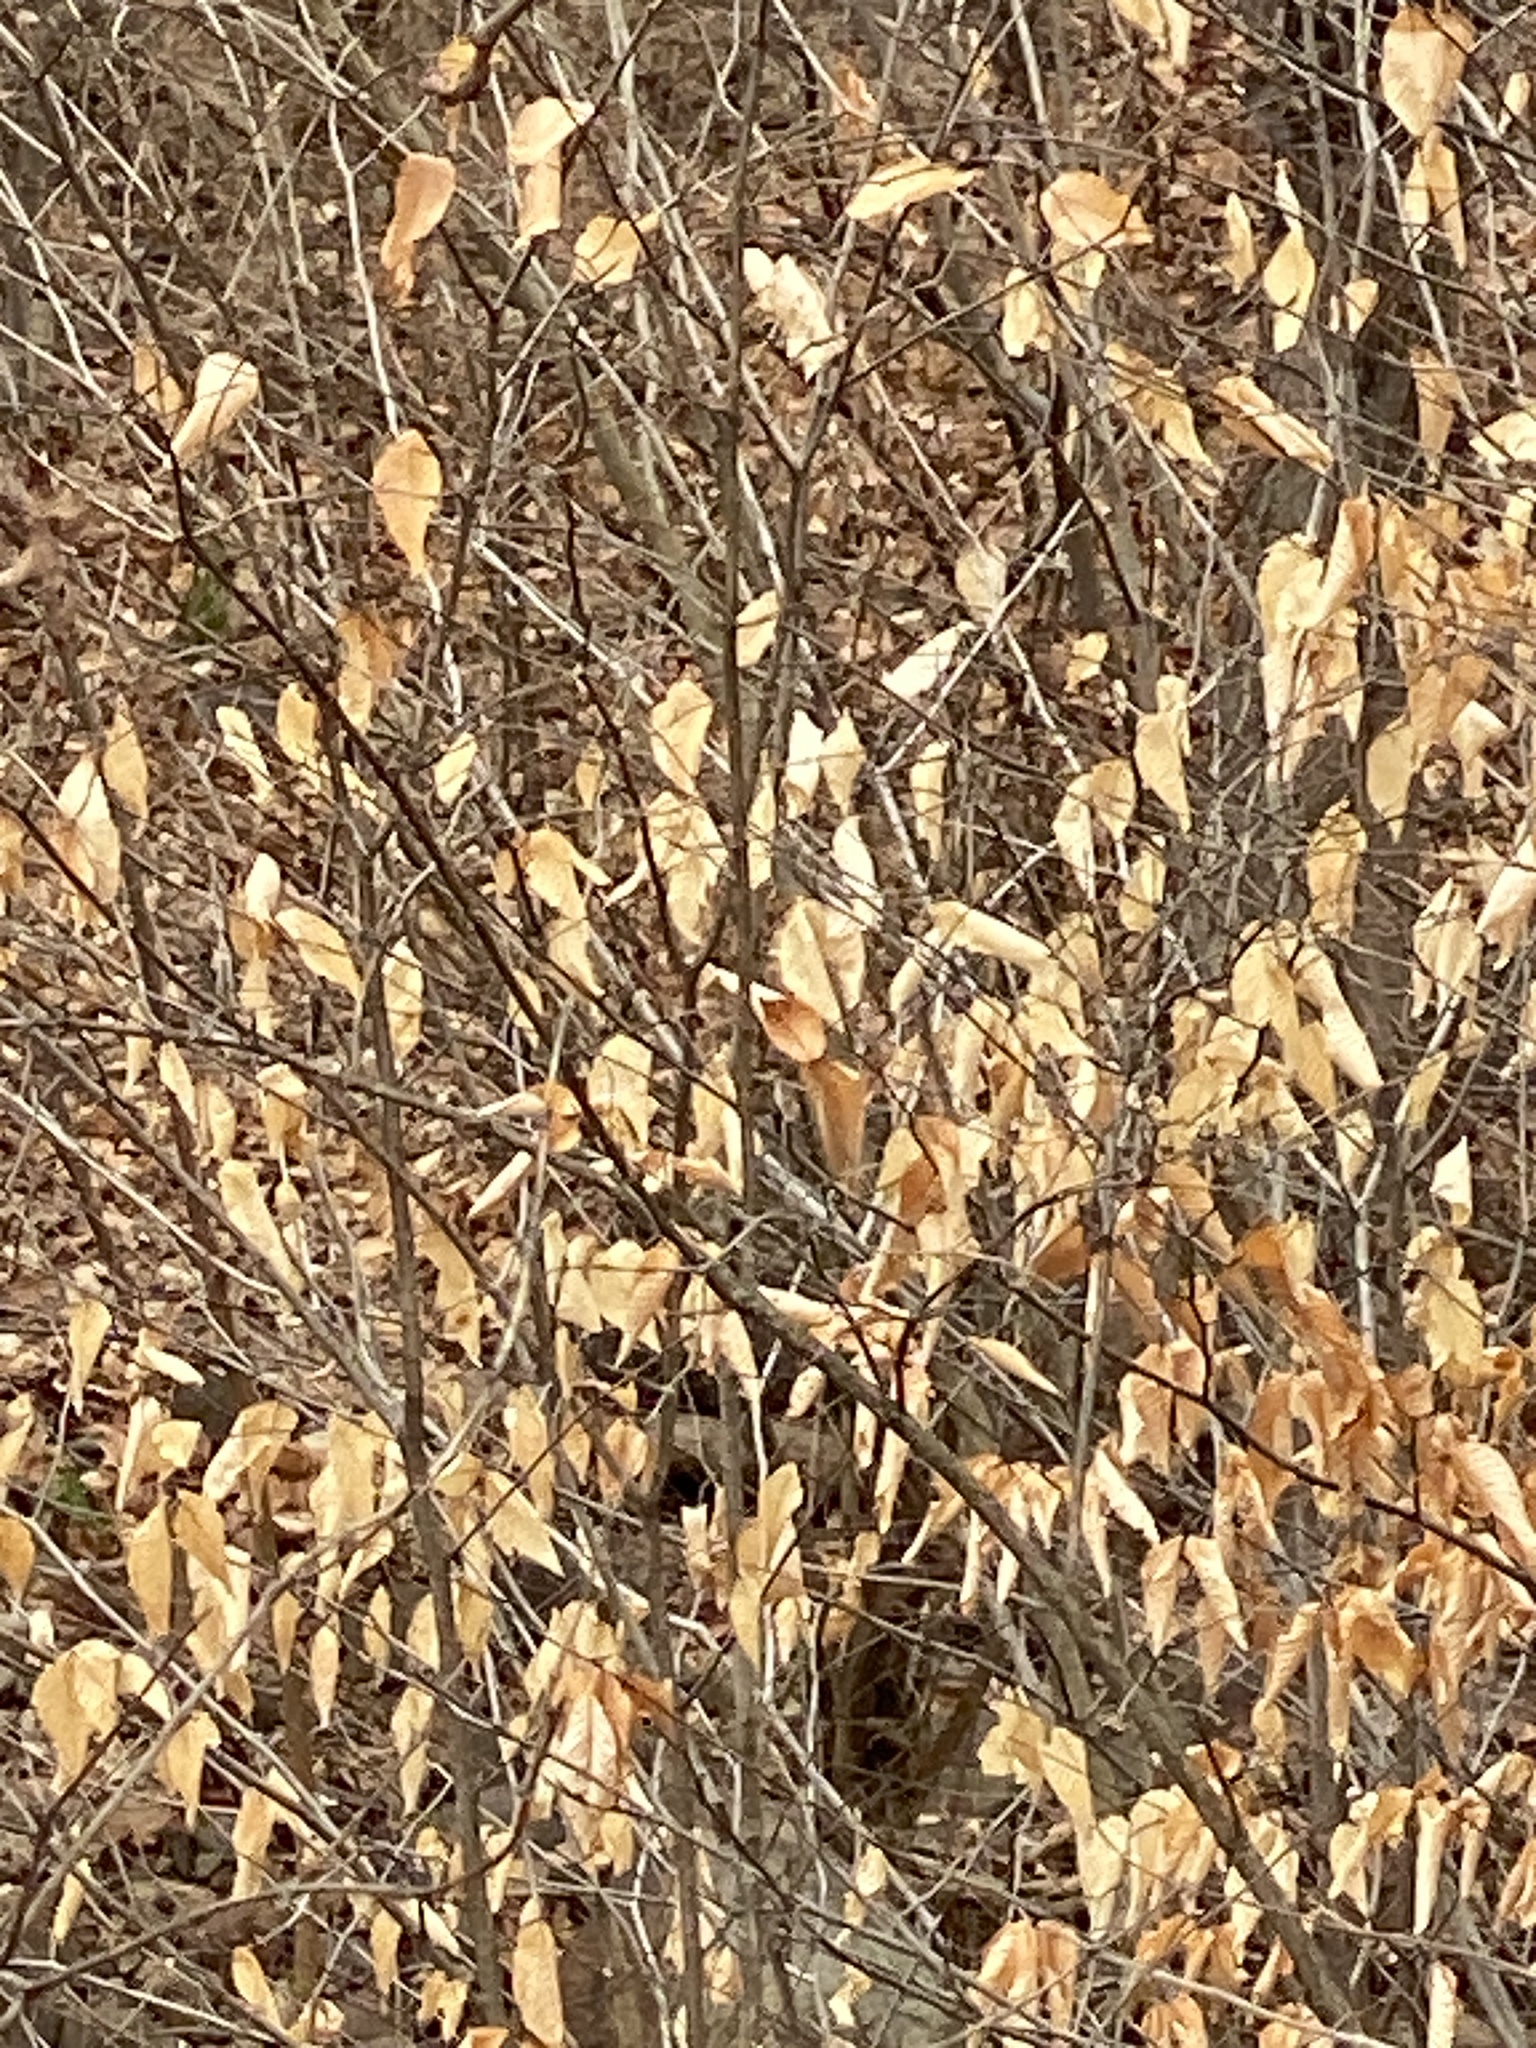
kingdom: Plantae
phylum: Tracheophyta
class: Magnoliopsida
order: Fagales
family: Fagaceae
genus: Fagus
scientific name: Fagus grandifolia
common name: American beech
